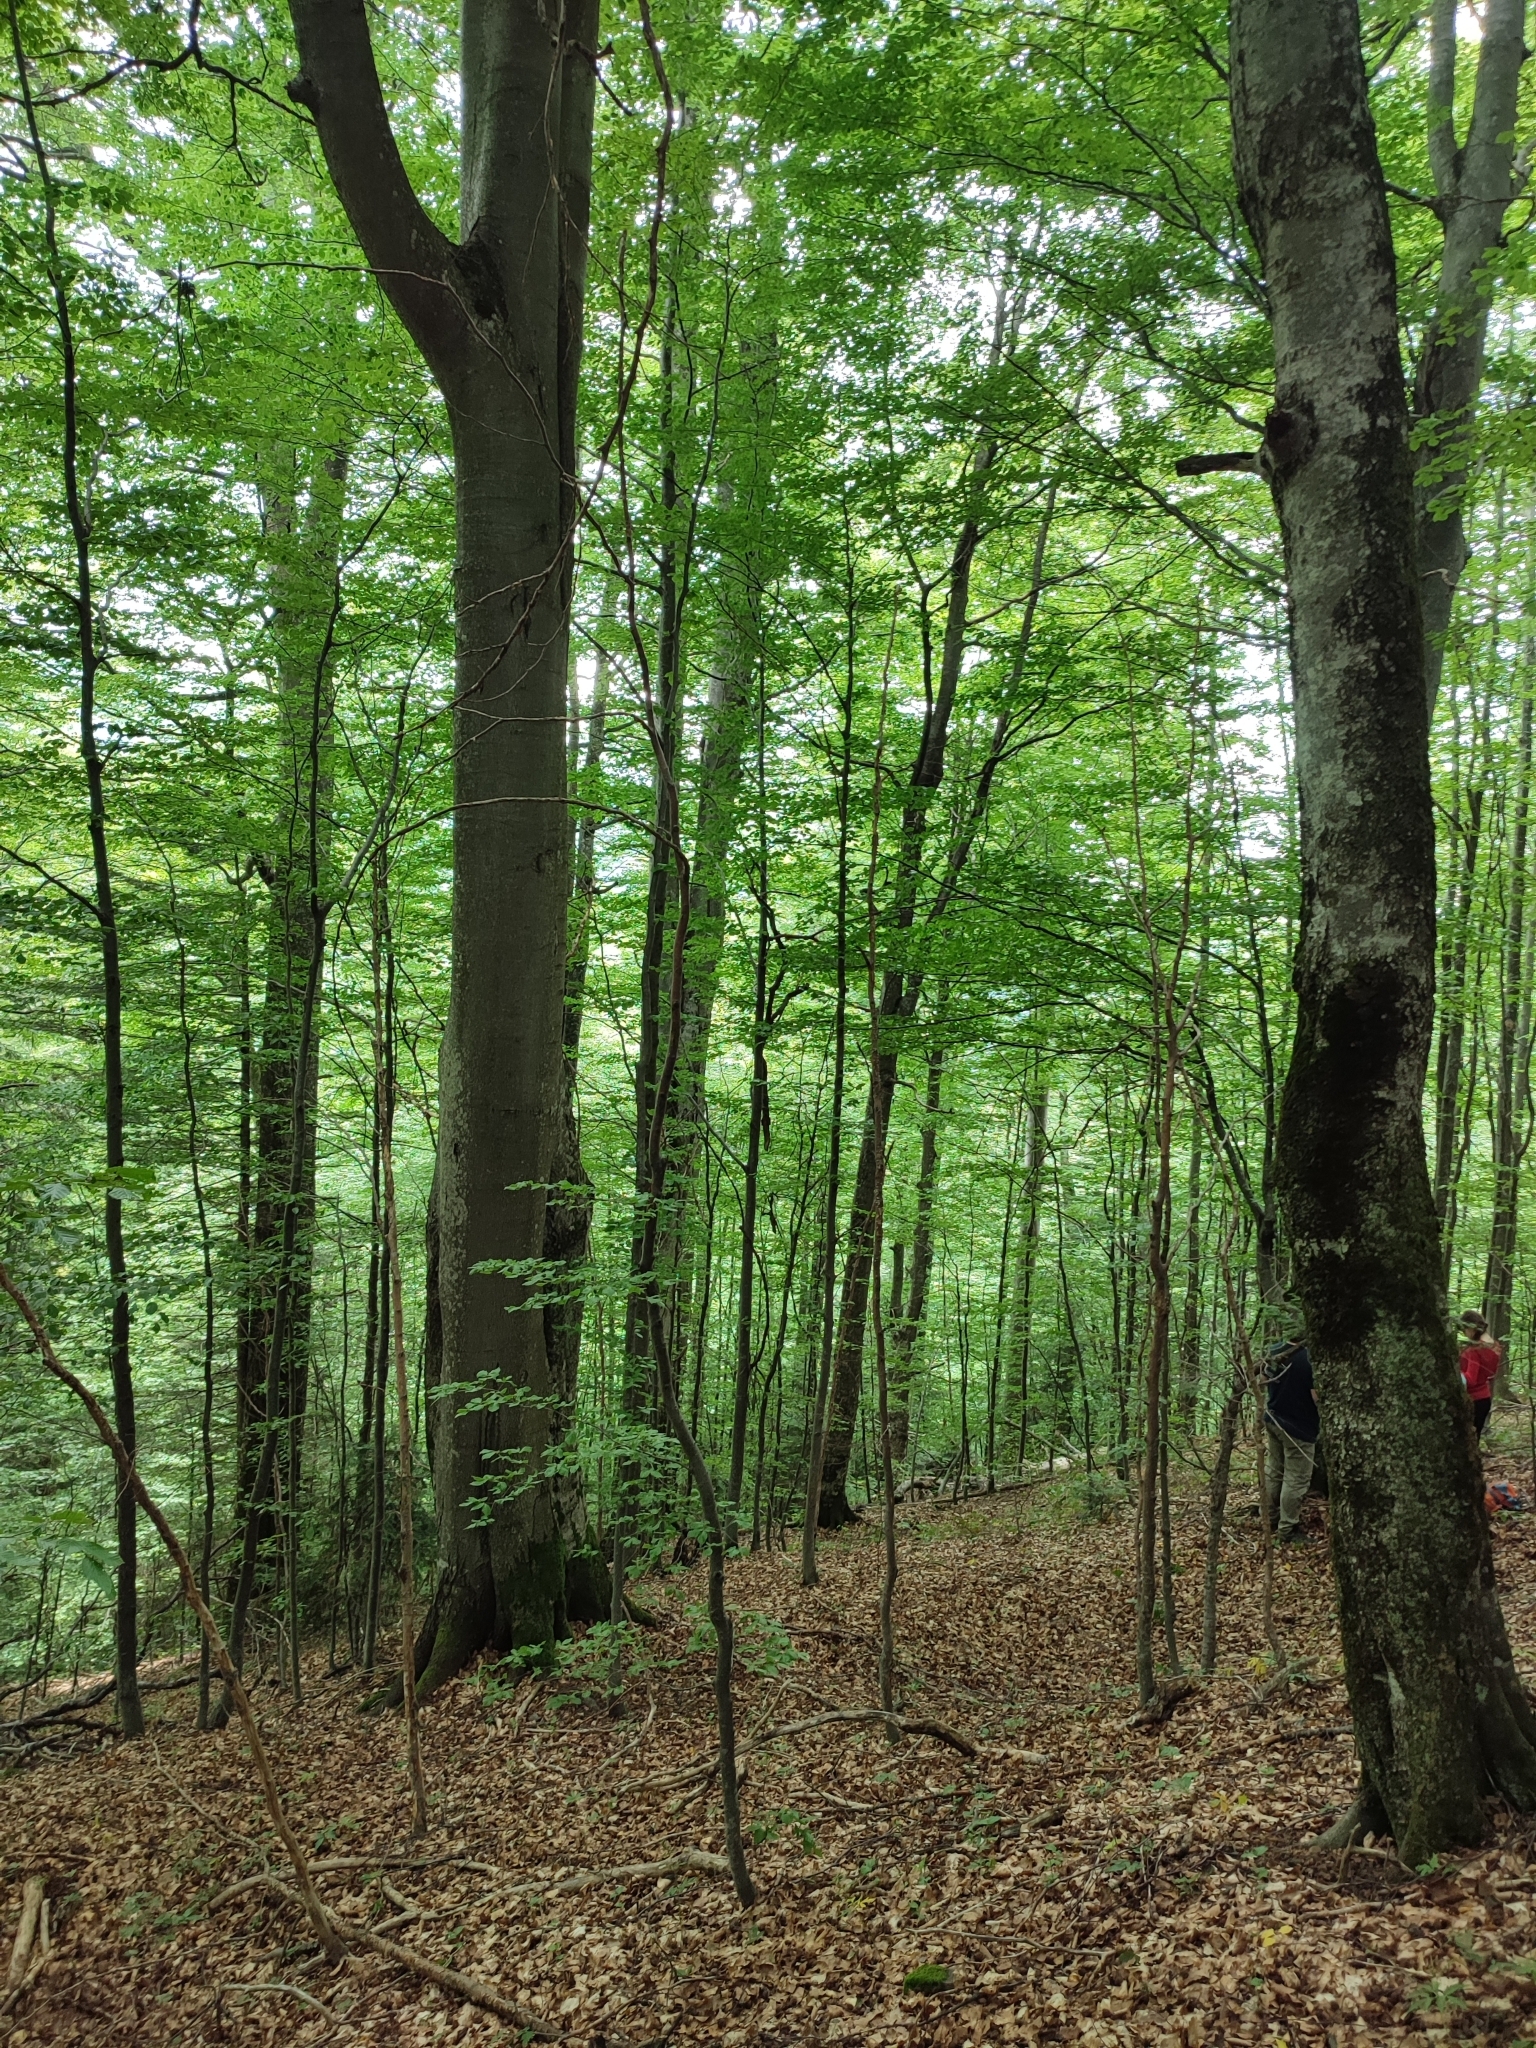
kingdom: Plantae
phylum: Tracheophyta
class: Magnoliopsida
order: Fagales
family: Fagaceae
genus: Fagus
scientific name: Fagus sylvatica
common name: Beech
